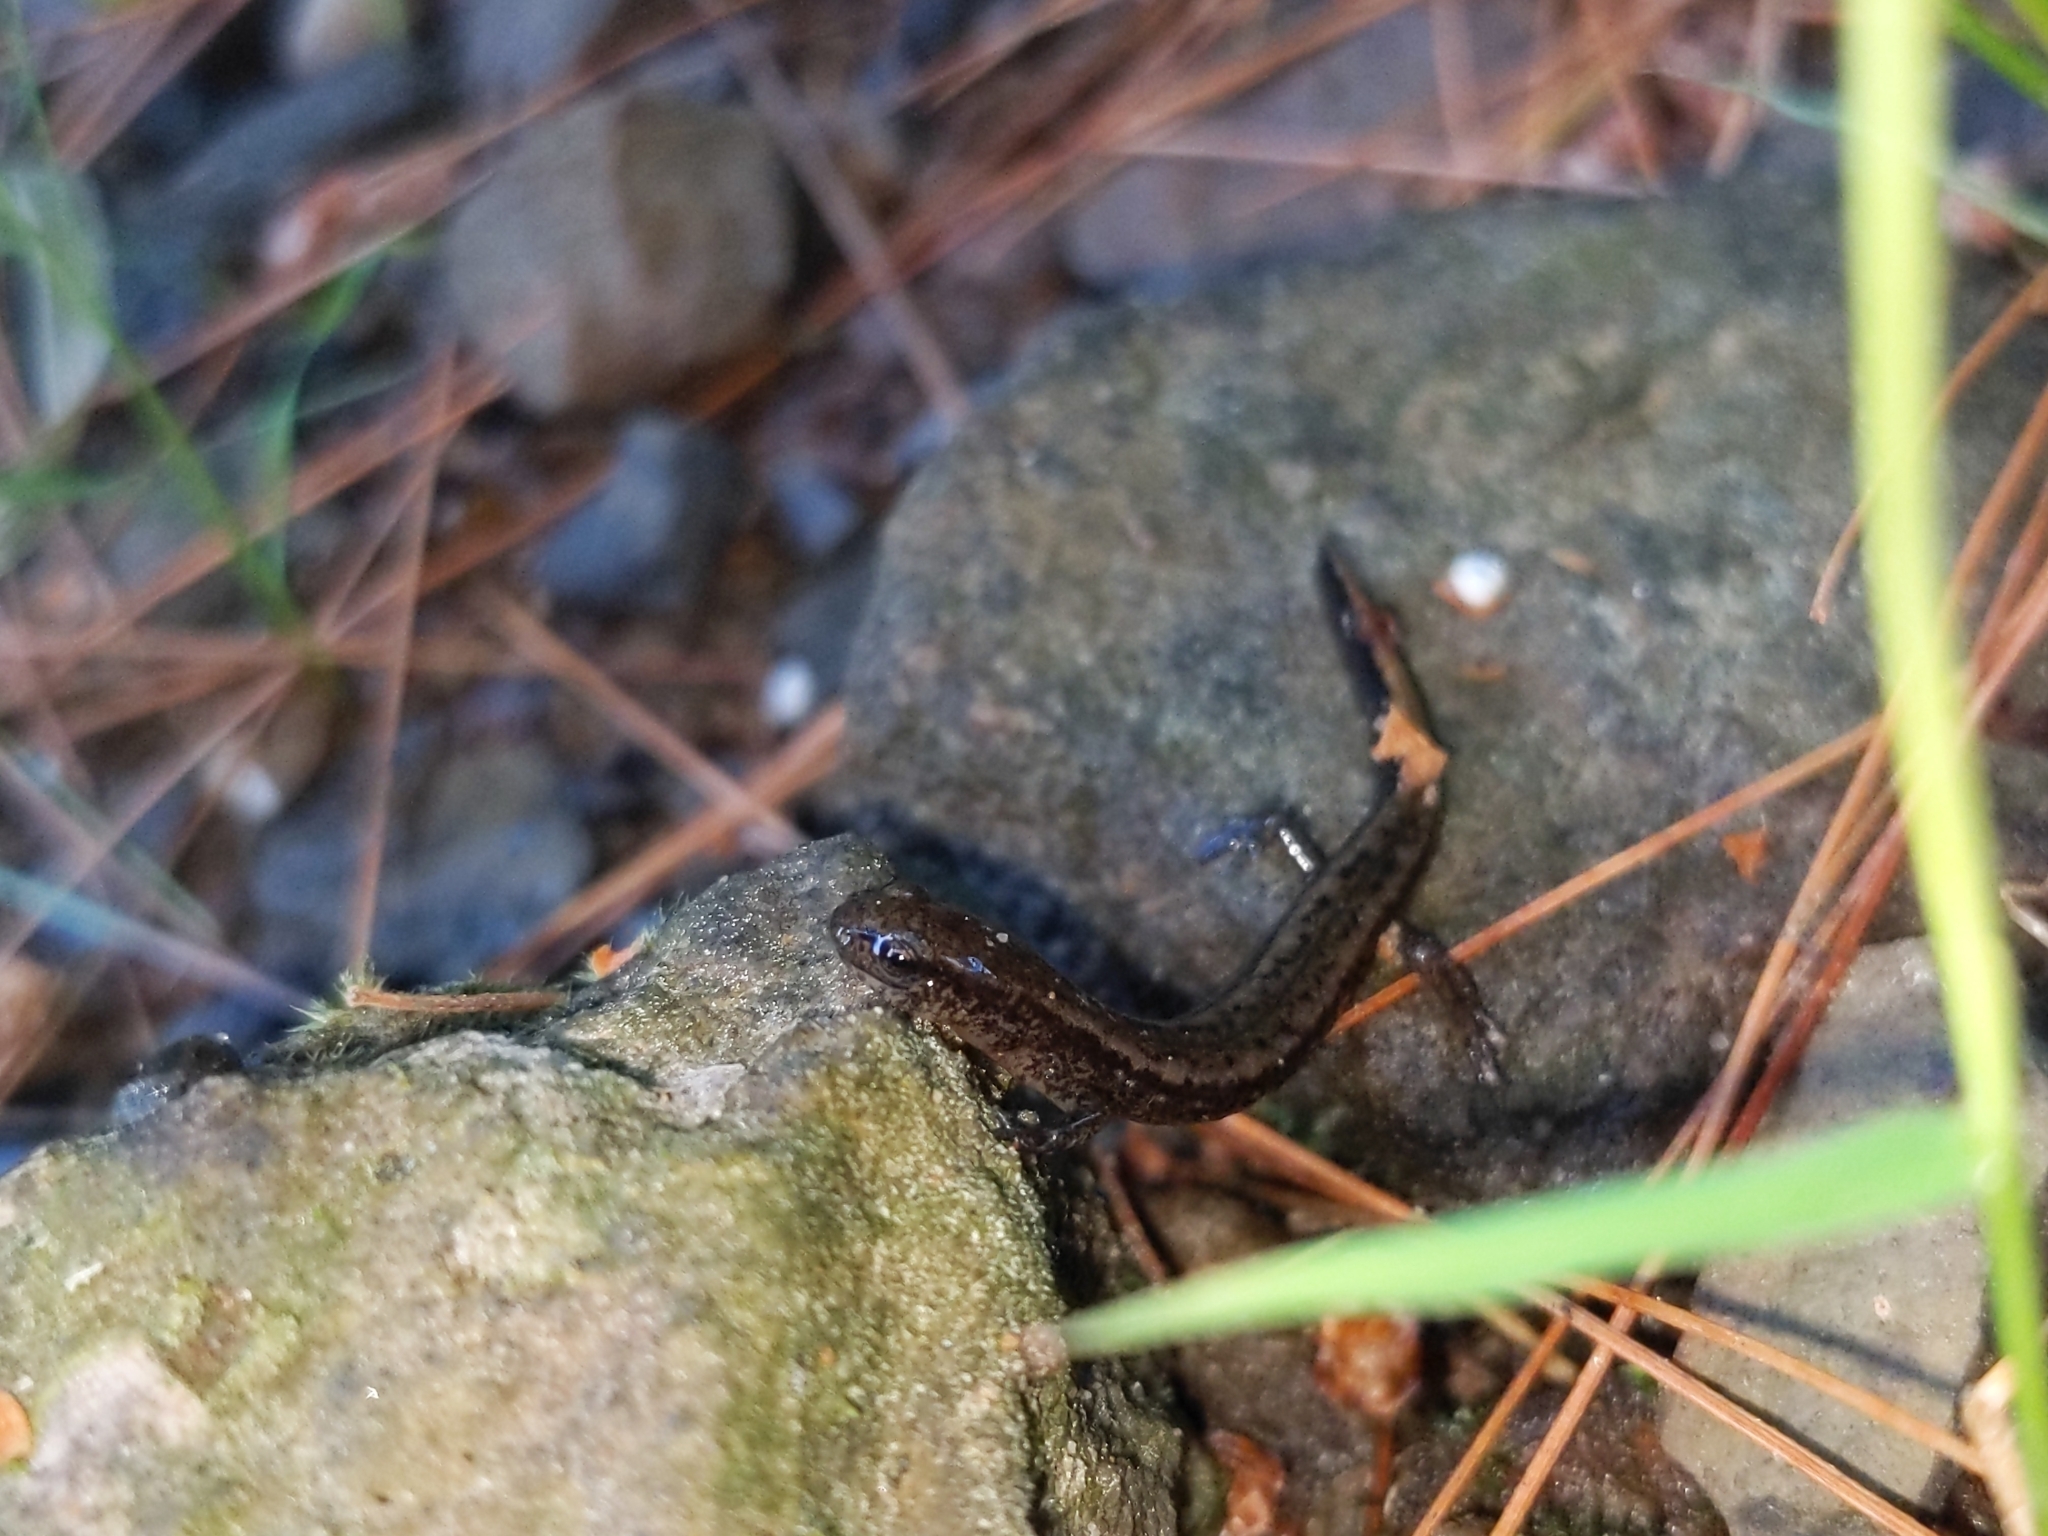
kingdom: Animalia
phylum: Chordata
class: Amphibia
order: Caudata
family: Plethodontidae
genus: Eurycea
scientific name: Eurycea bislineata
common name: Northern two-lined salamander
